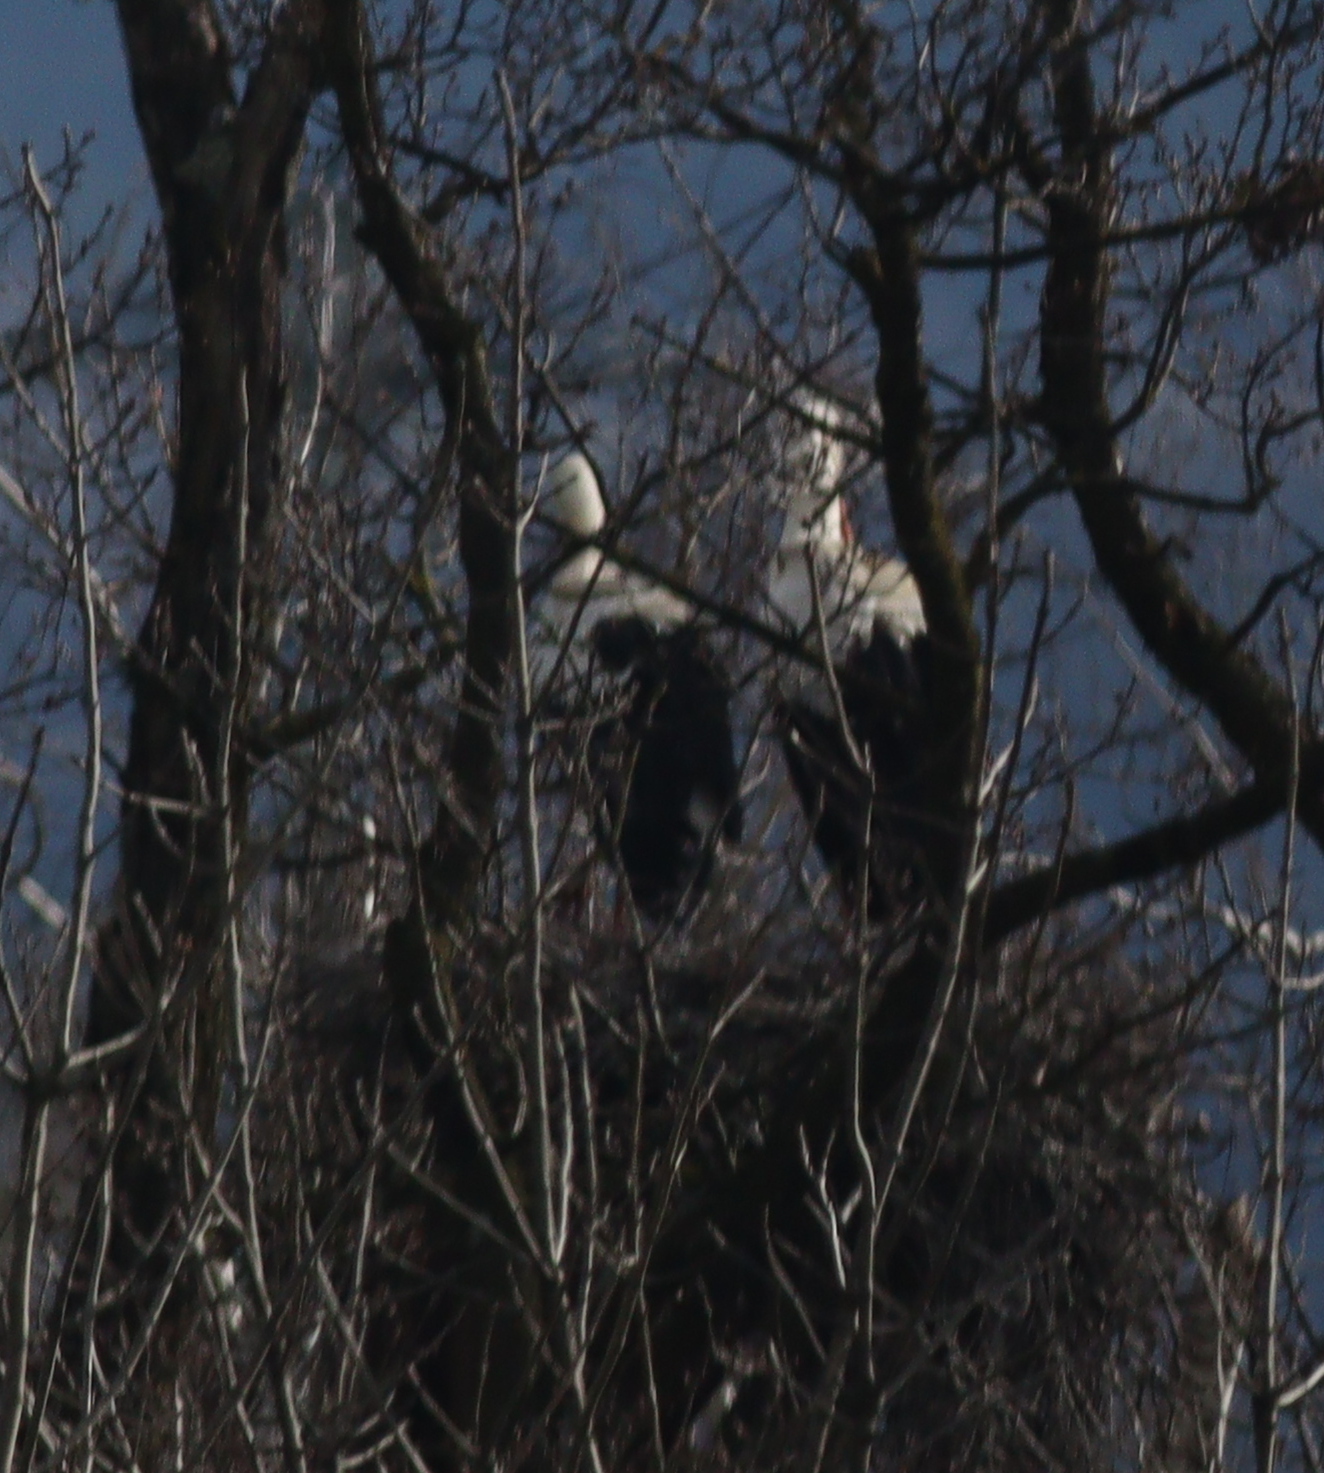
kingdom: Animalia
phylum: Chordata
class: Aves
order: Ciconiiformes
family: Ciconiidae
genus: Ciconia
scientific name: Ciconia ciconia
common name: White stork
